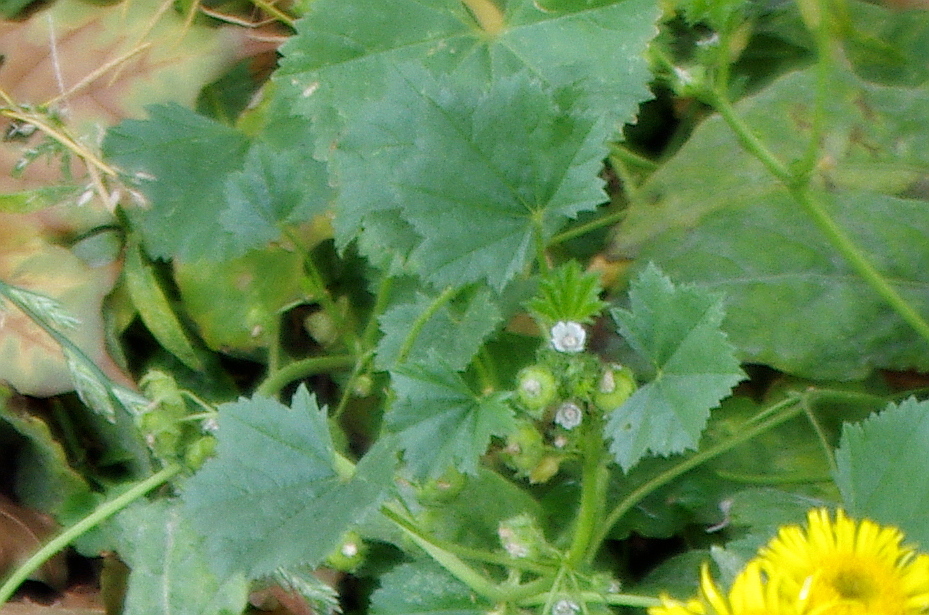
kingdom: Plantae
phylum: Tracheophyta
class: Magnoliopsida
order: Malvales
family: Malvaceae
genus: Malva
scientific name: Malva pusilla
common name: Small mallow
